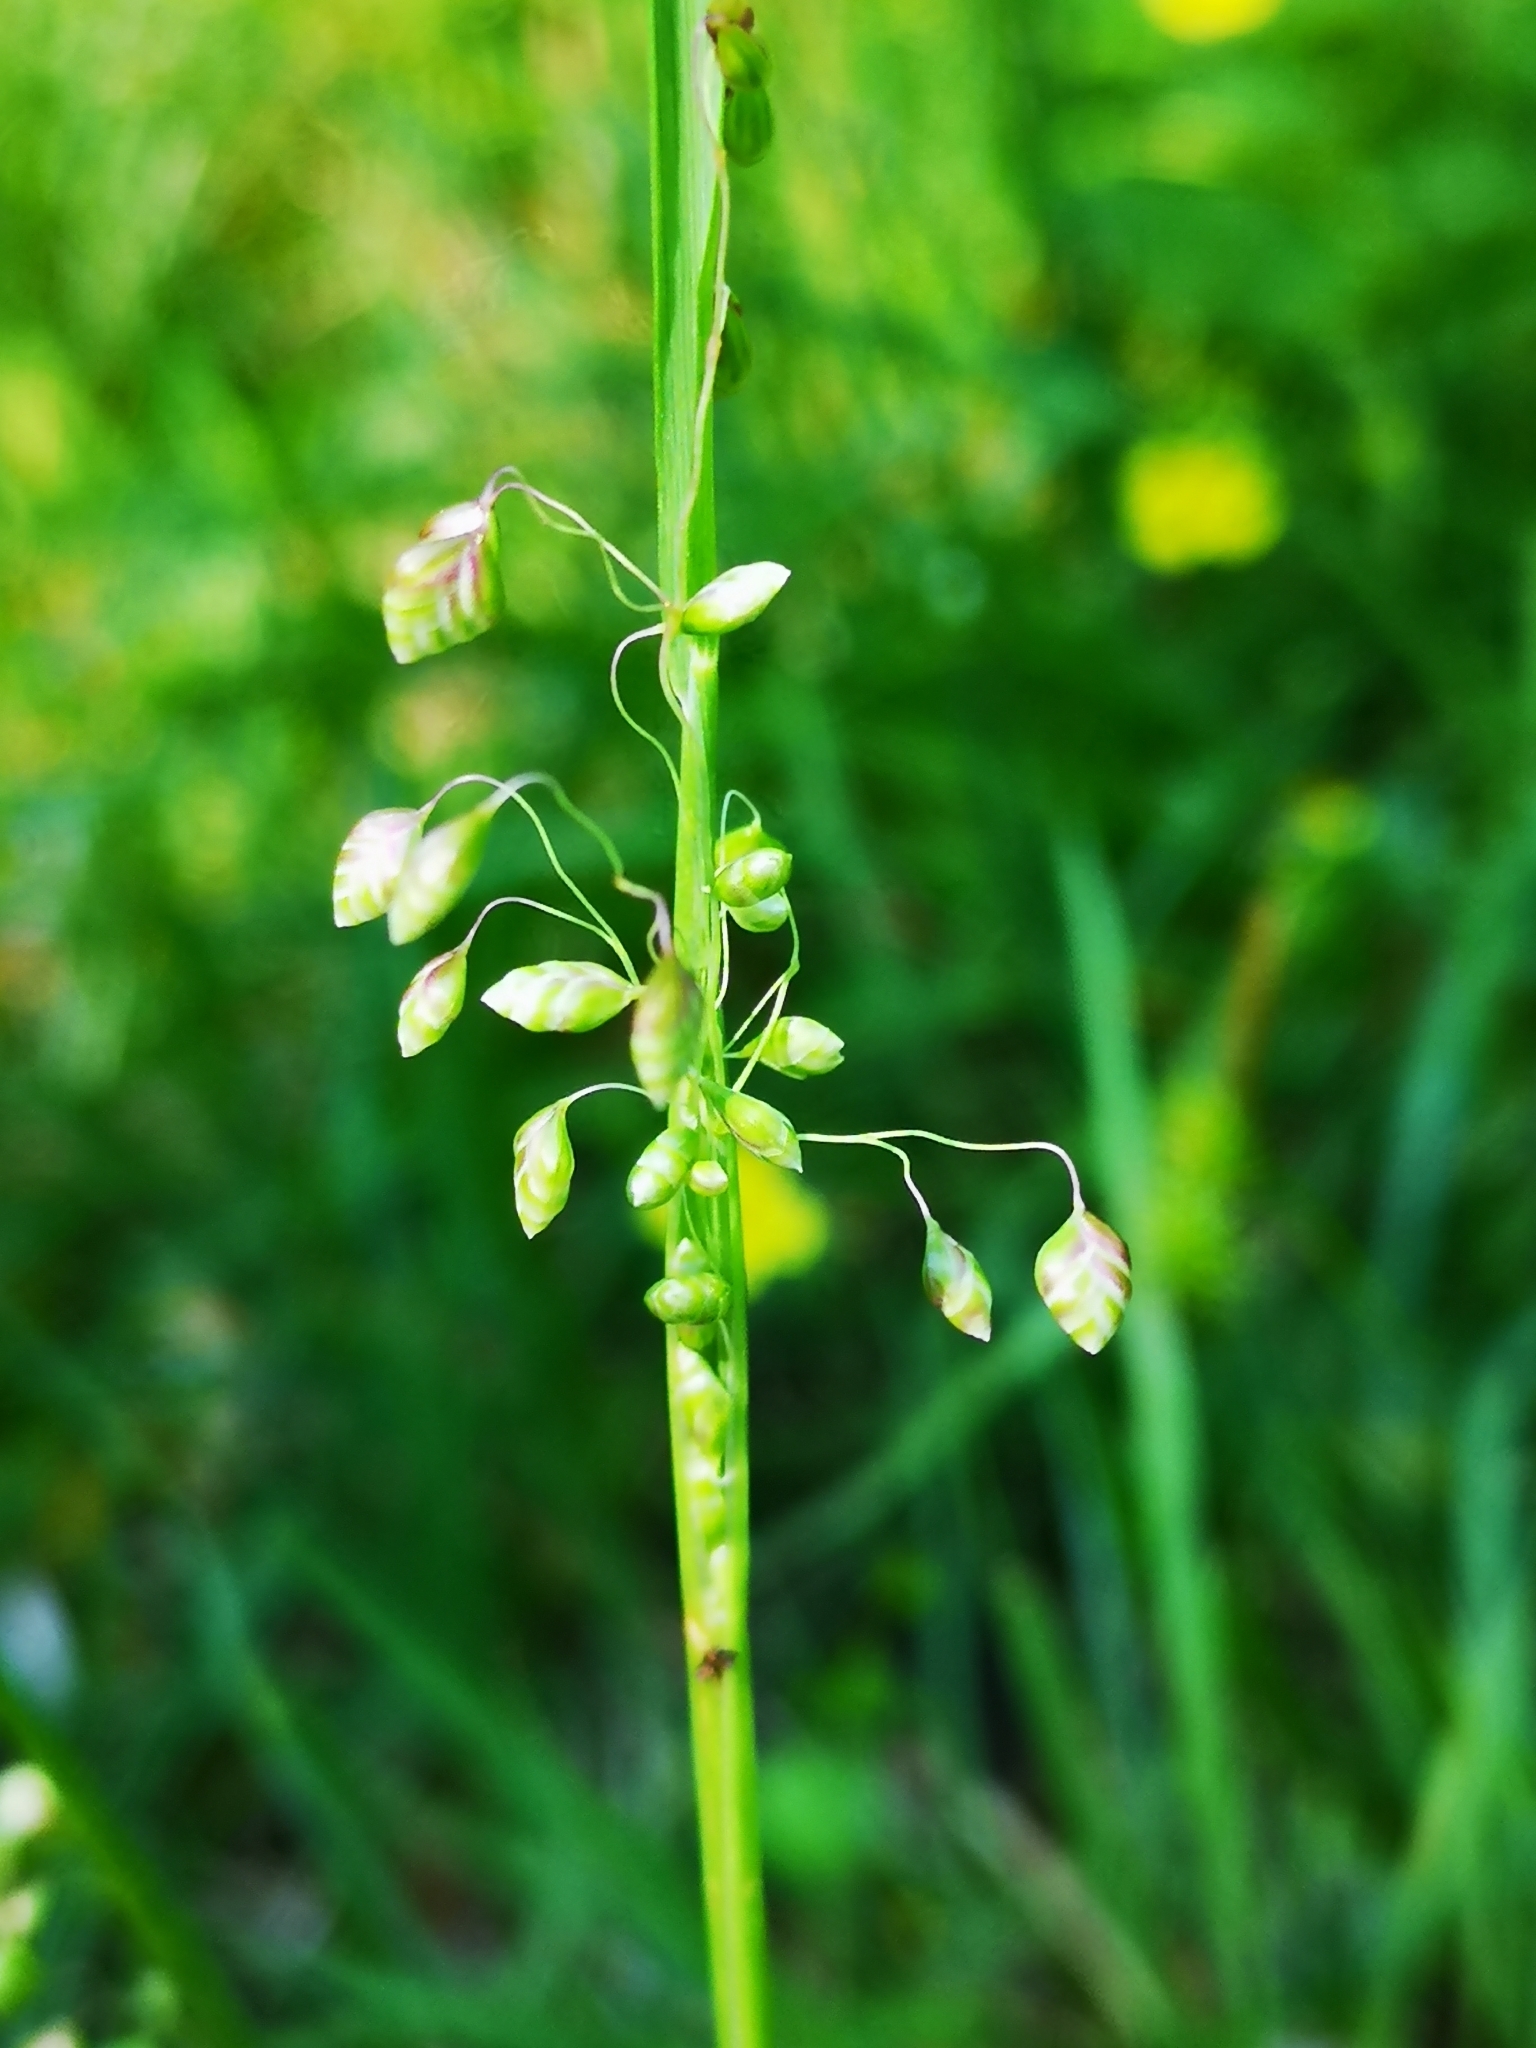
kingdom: Plantae
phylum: Tracheophyta
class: Liliopsida
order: Poales
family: Poaceae
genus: Briza
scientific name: Briza media
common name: Quaking grass
